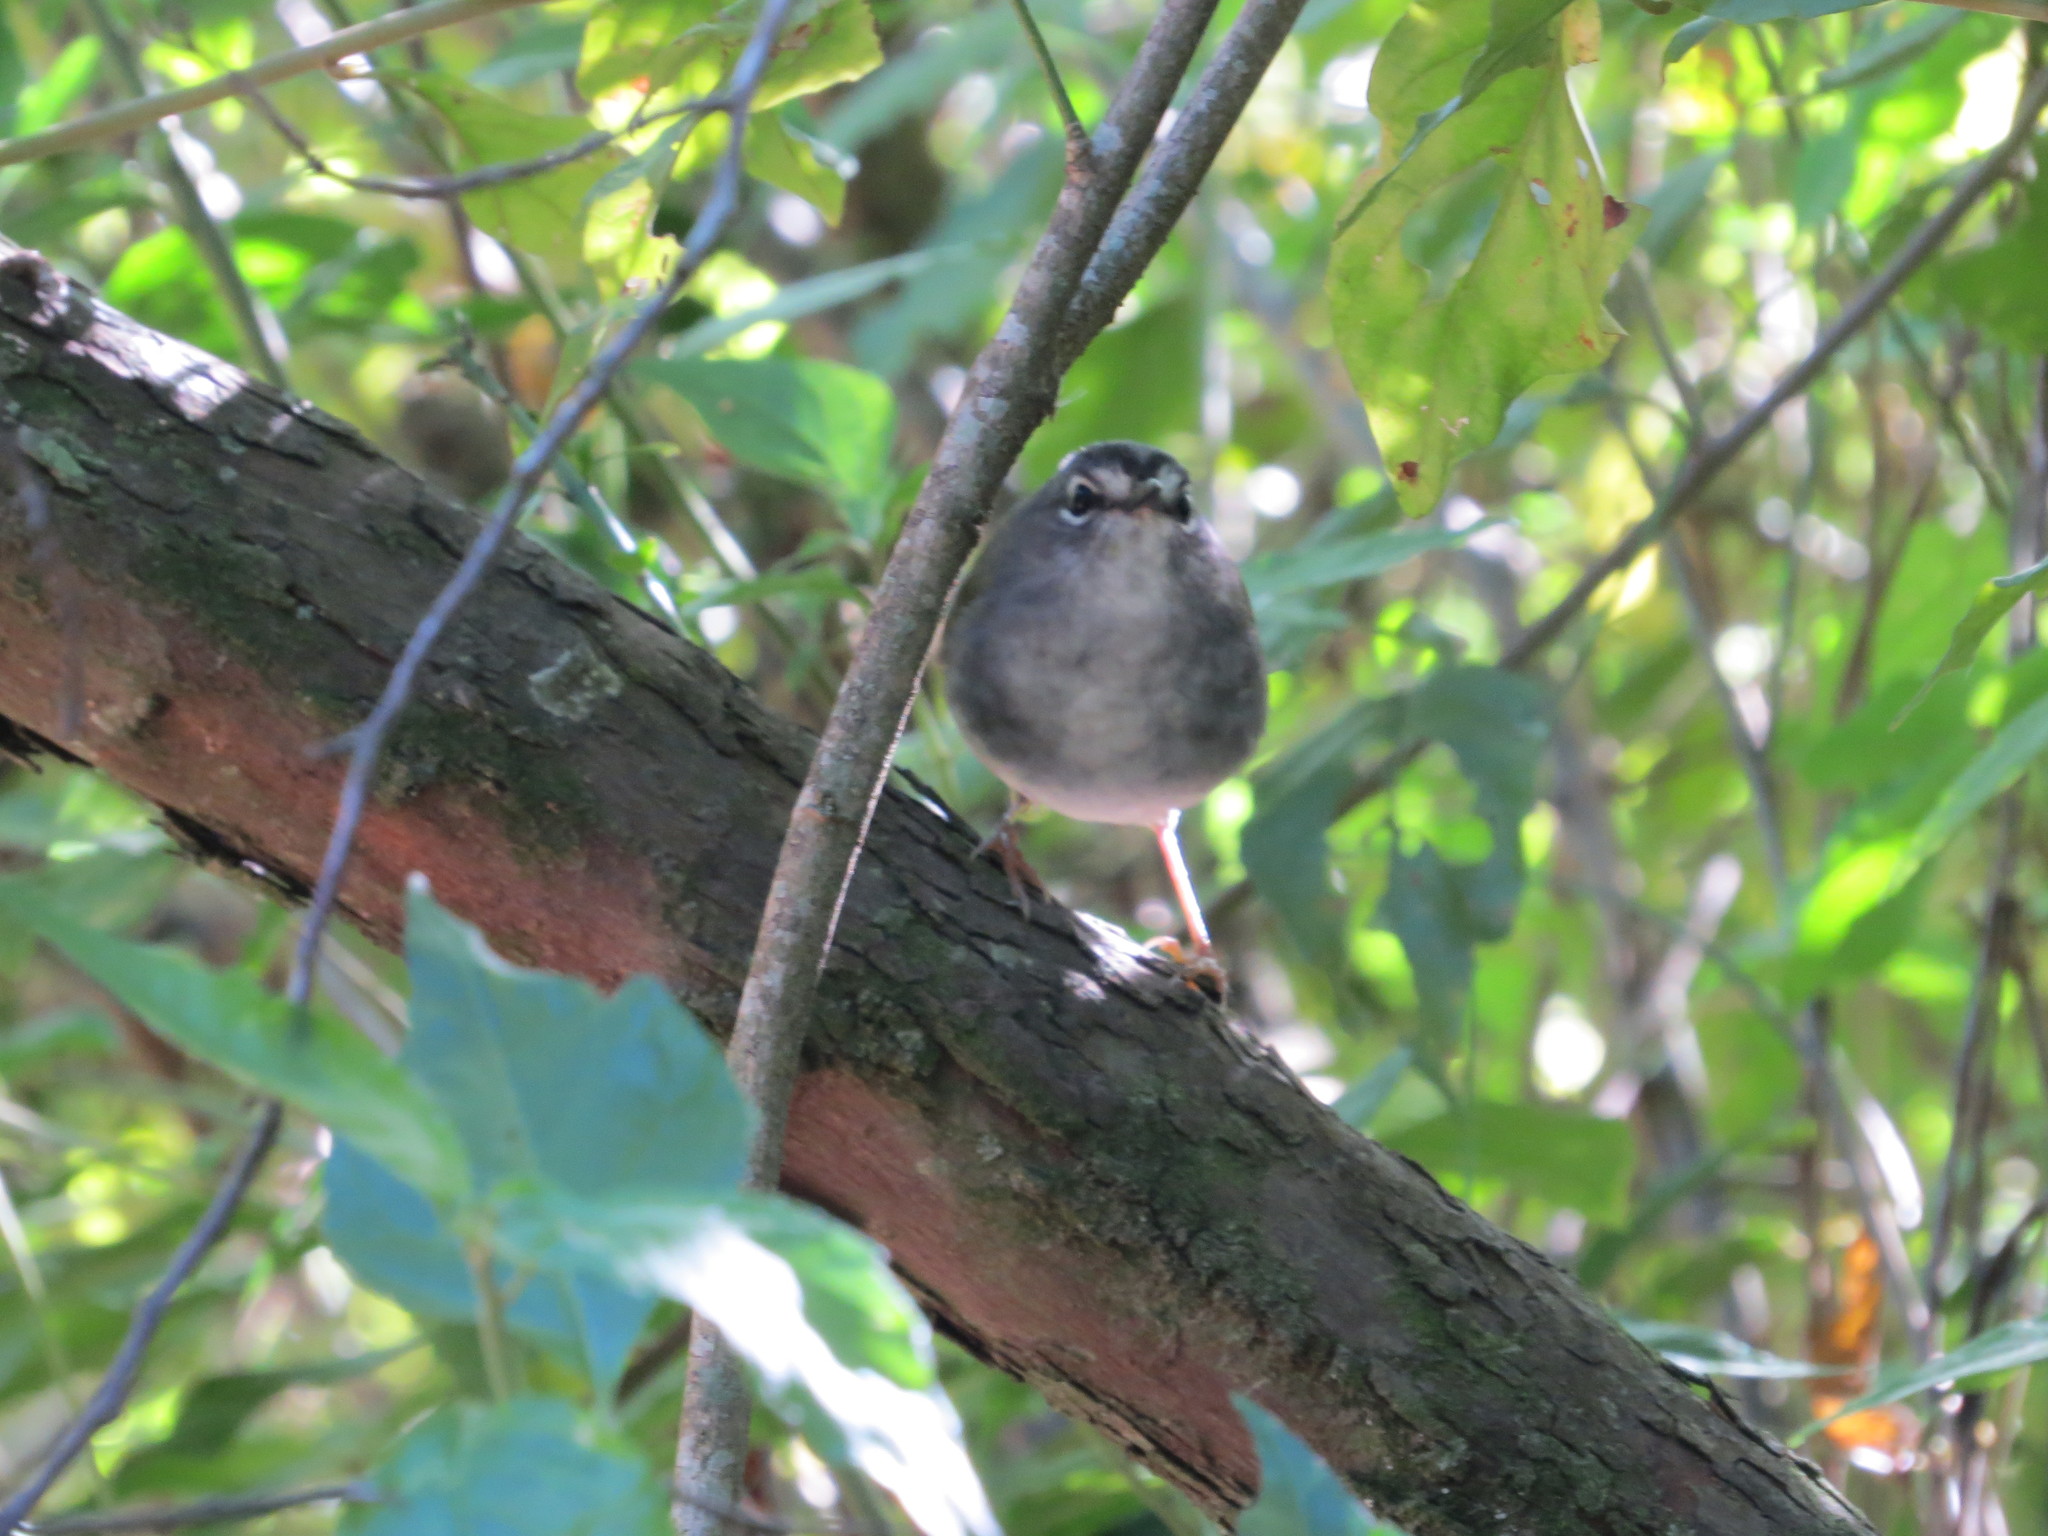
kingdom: Animalia
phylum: Chordata
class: Aves
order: Passeriformes
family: Parulidae
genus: Myiothlypis
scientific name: Myiothlypis leucoblephara
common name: White-rimmed warbler
